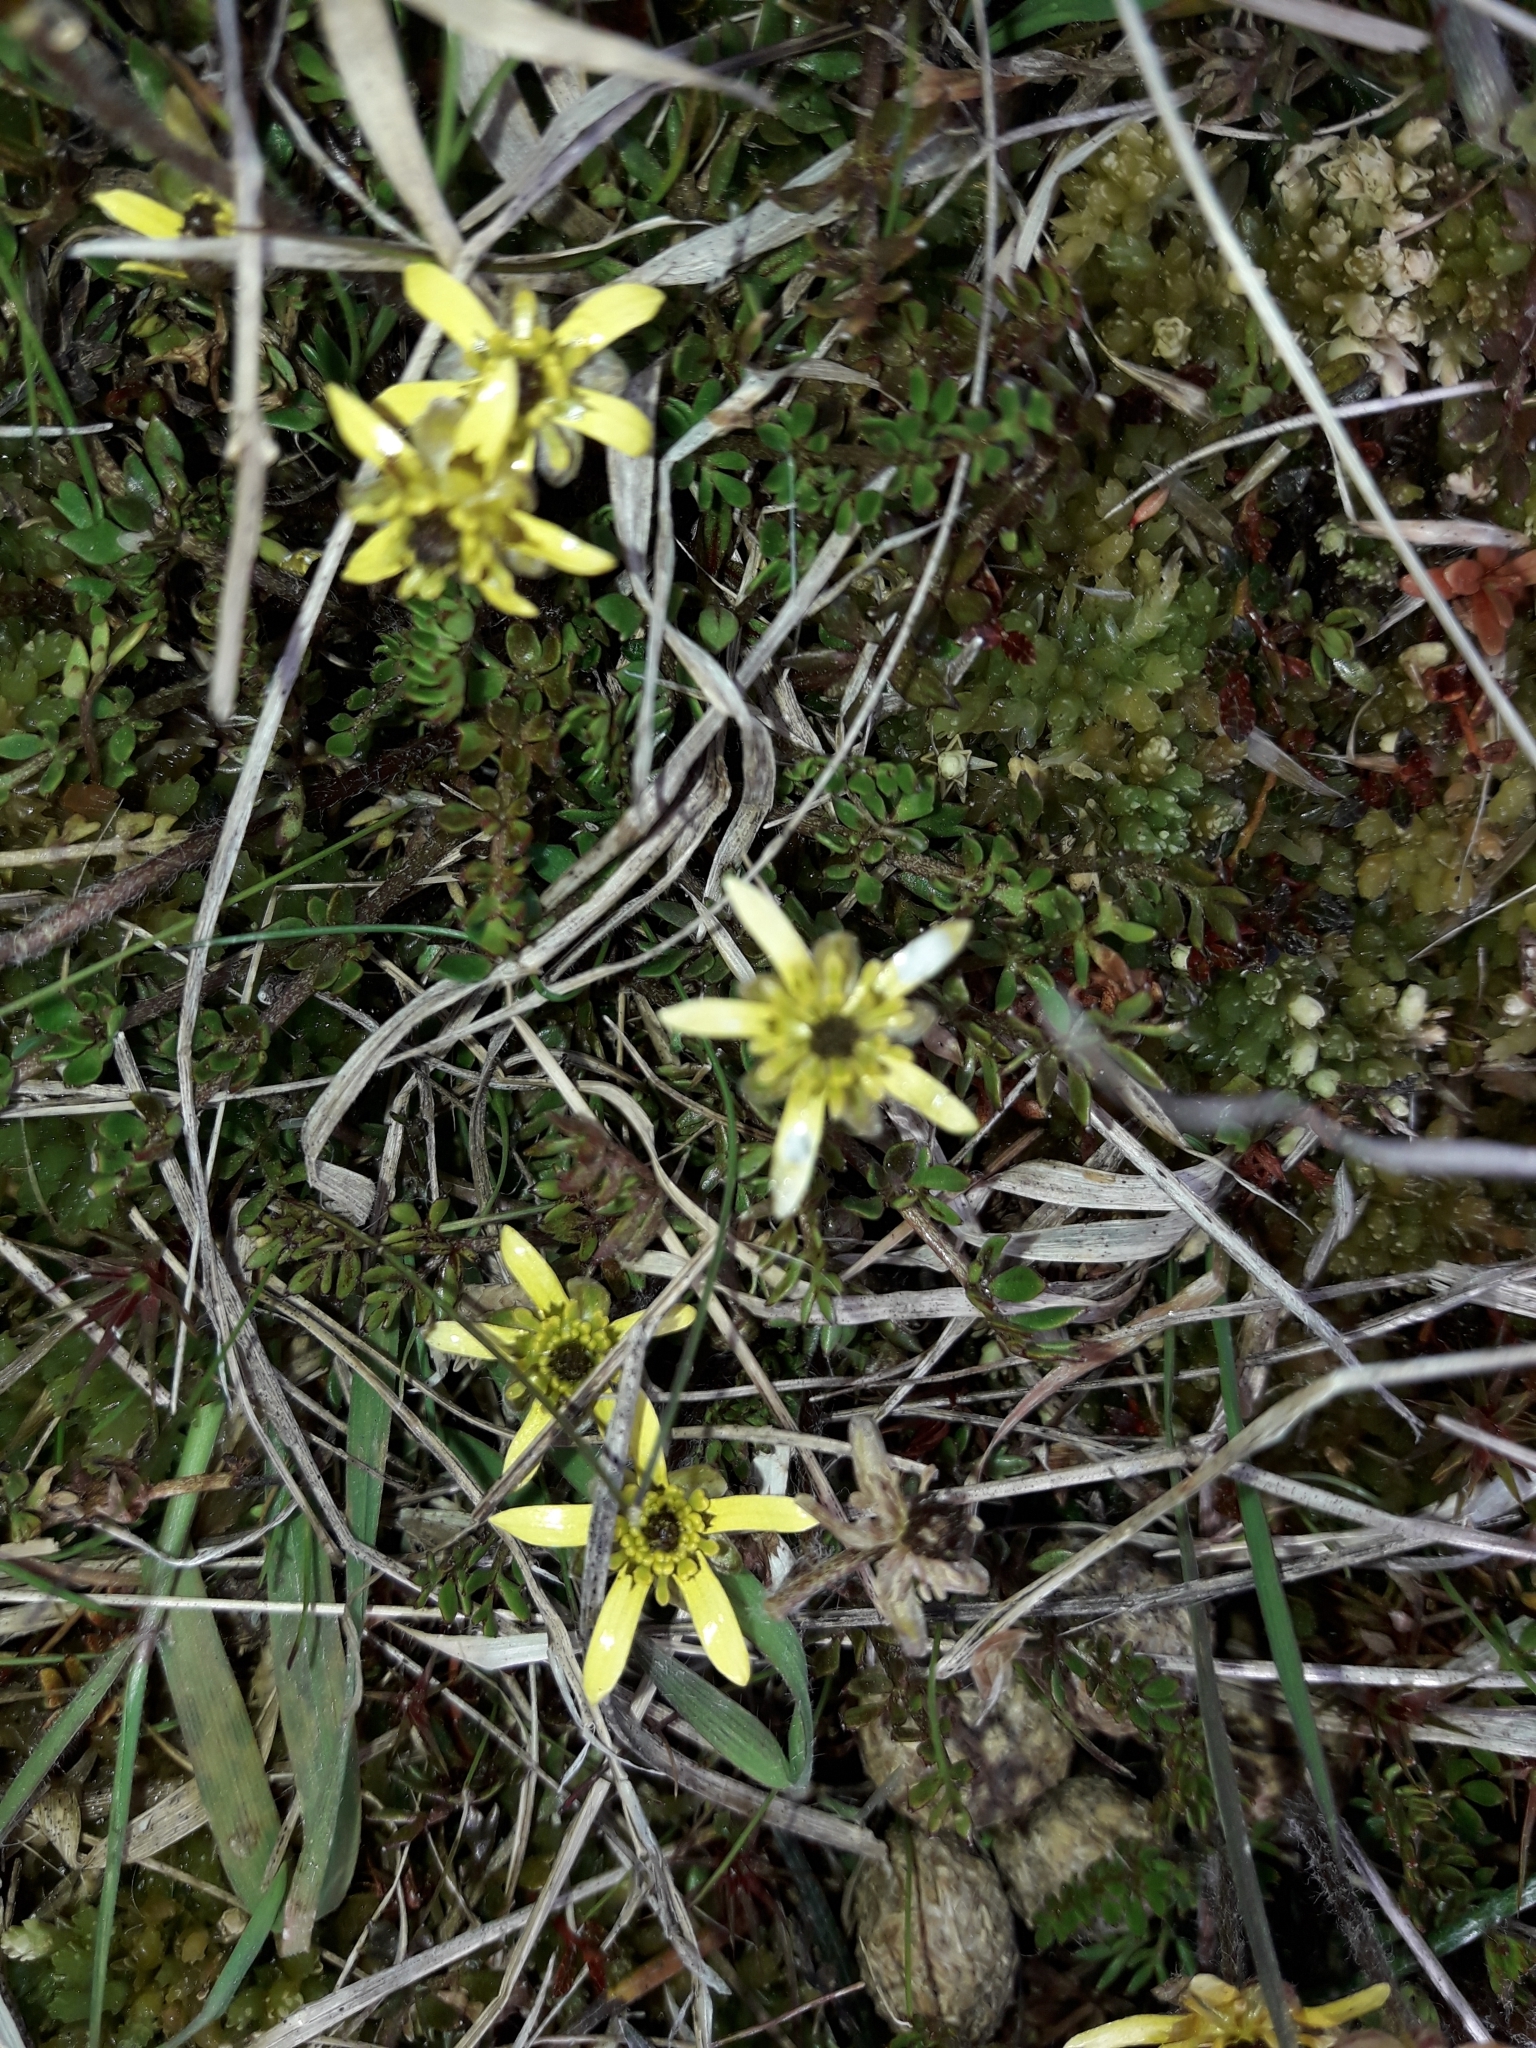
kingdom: Plantae
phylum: Tracheophyta
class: Magnoliopsida
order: Ranunculales
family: Ranunculaceae
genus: Ranunculus
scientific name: Ranunculus gracilipes
